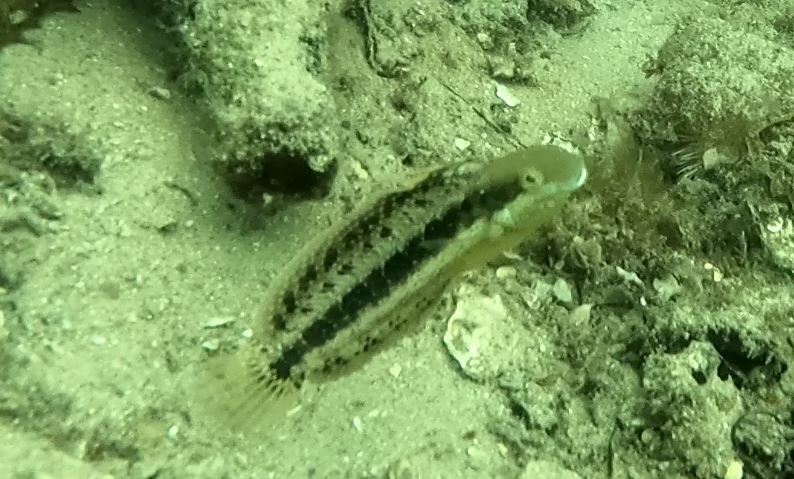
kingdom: Animalia
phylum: Chordata
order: Perciformes
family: Blenniidae
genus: Petroscirtes
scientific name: Petroscirtes lupus
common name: Wolf fangblenny
